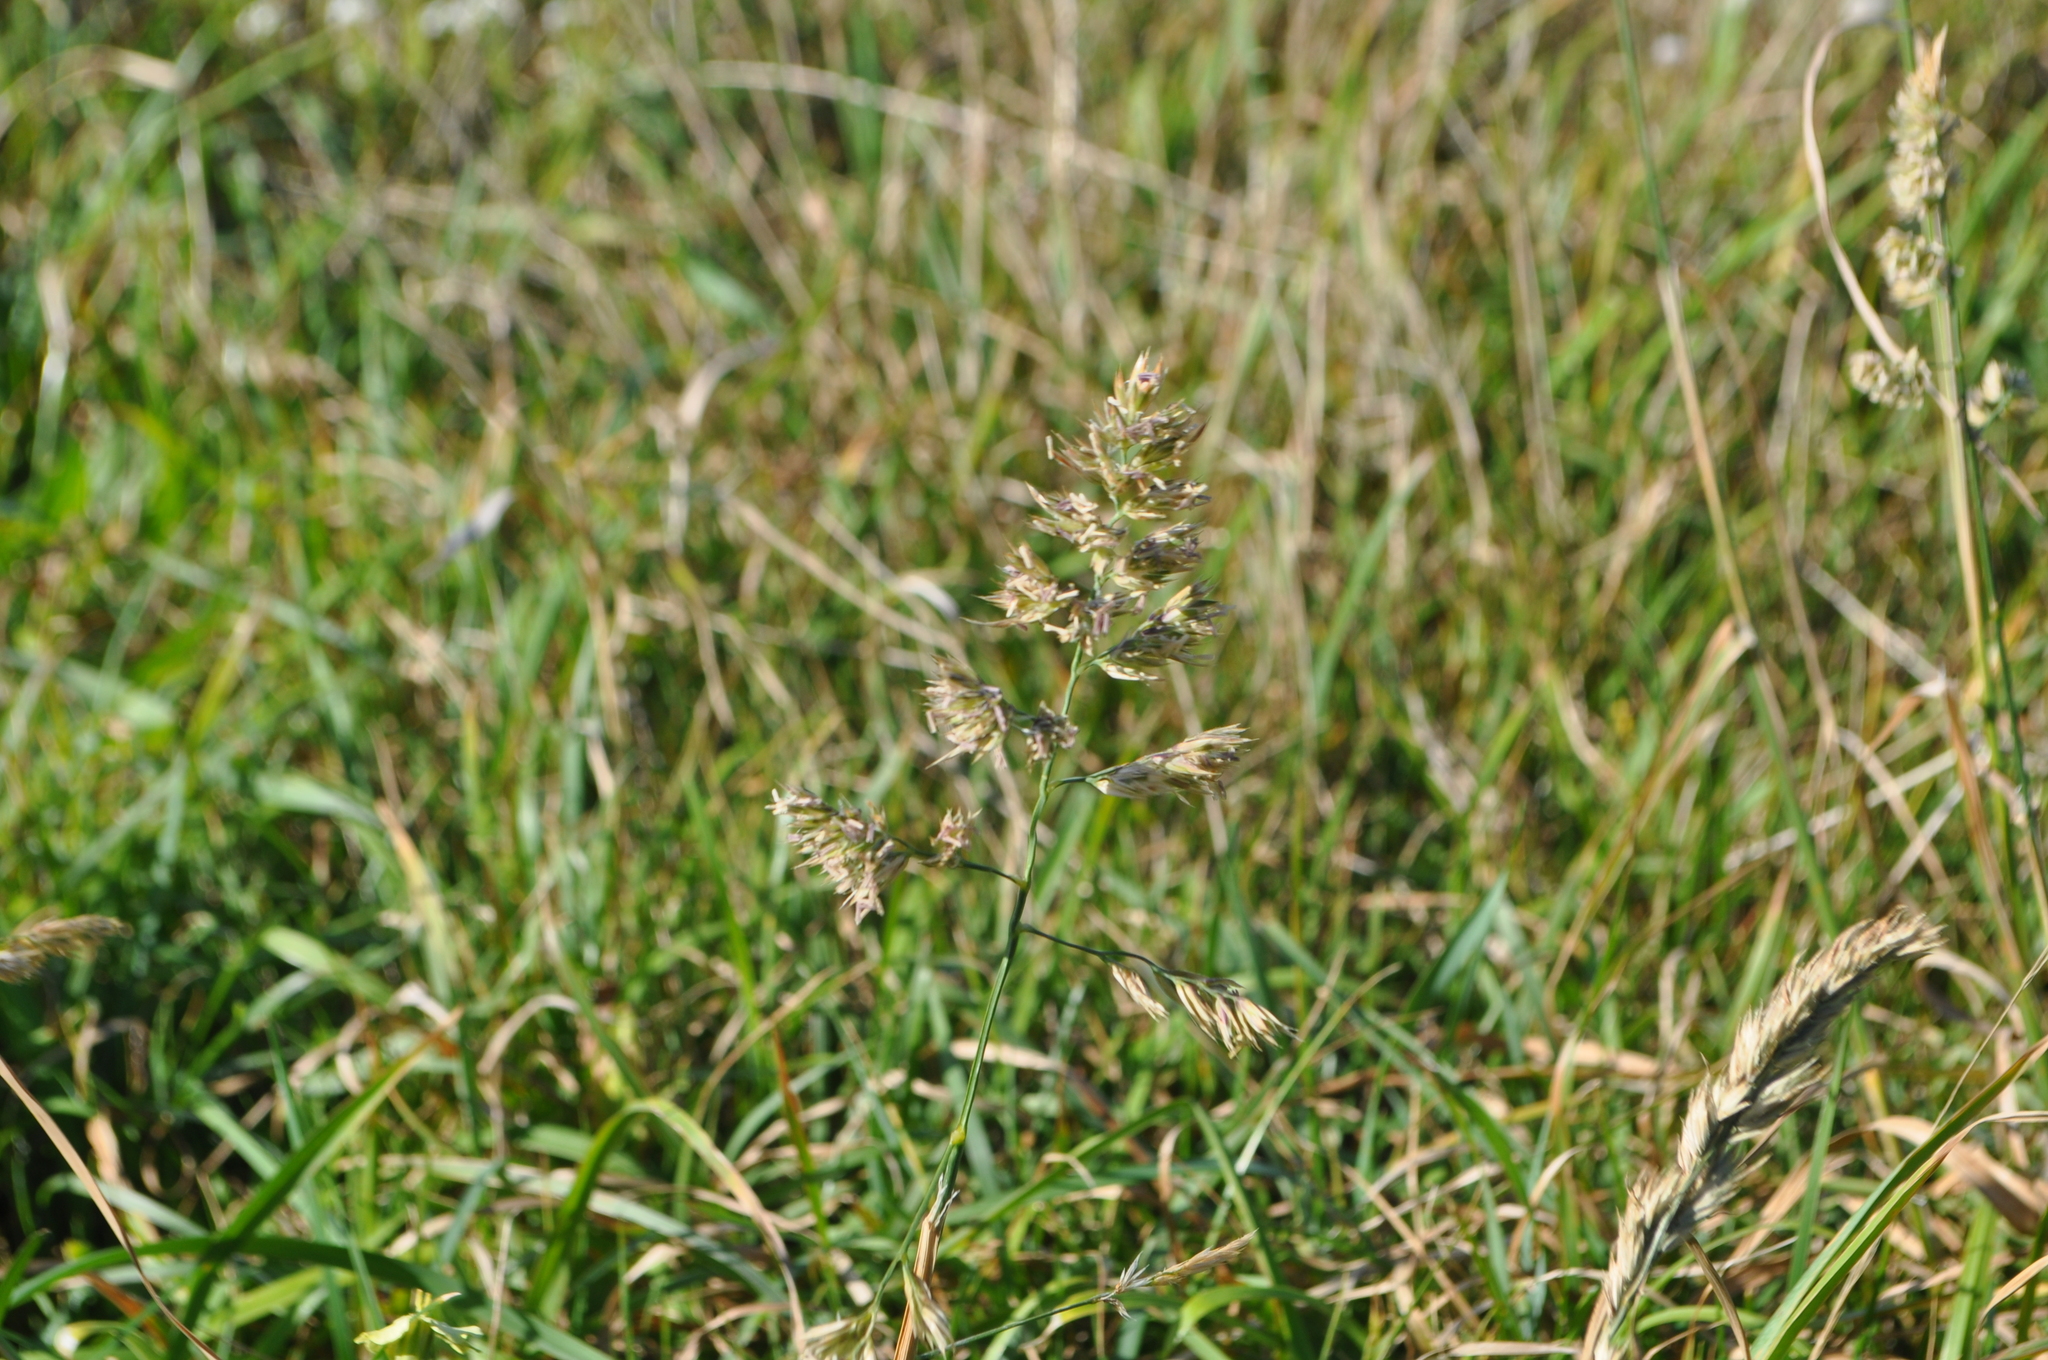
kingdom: Plantae
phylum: Tracheophyta
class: Liliopsida
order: Poales
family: Poaceae
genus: Dactylis
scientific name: Dactylis glomerata
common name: Orchardgrass
